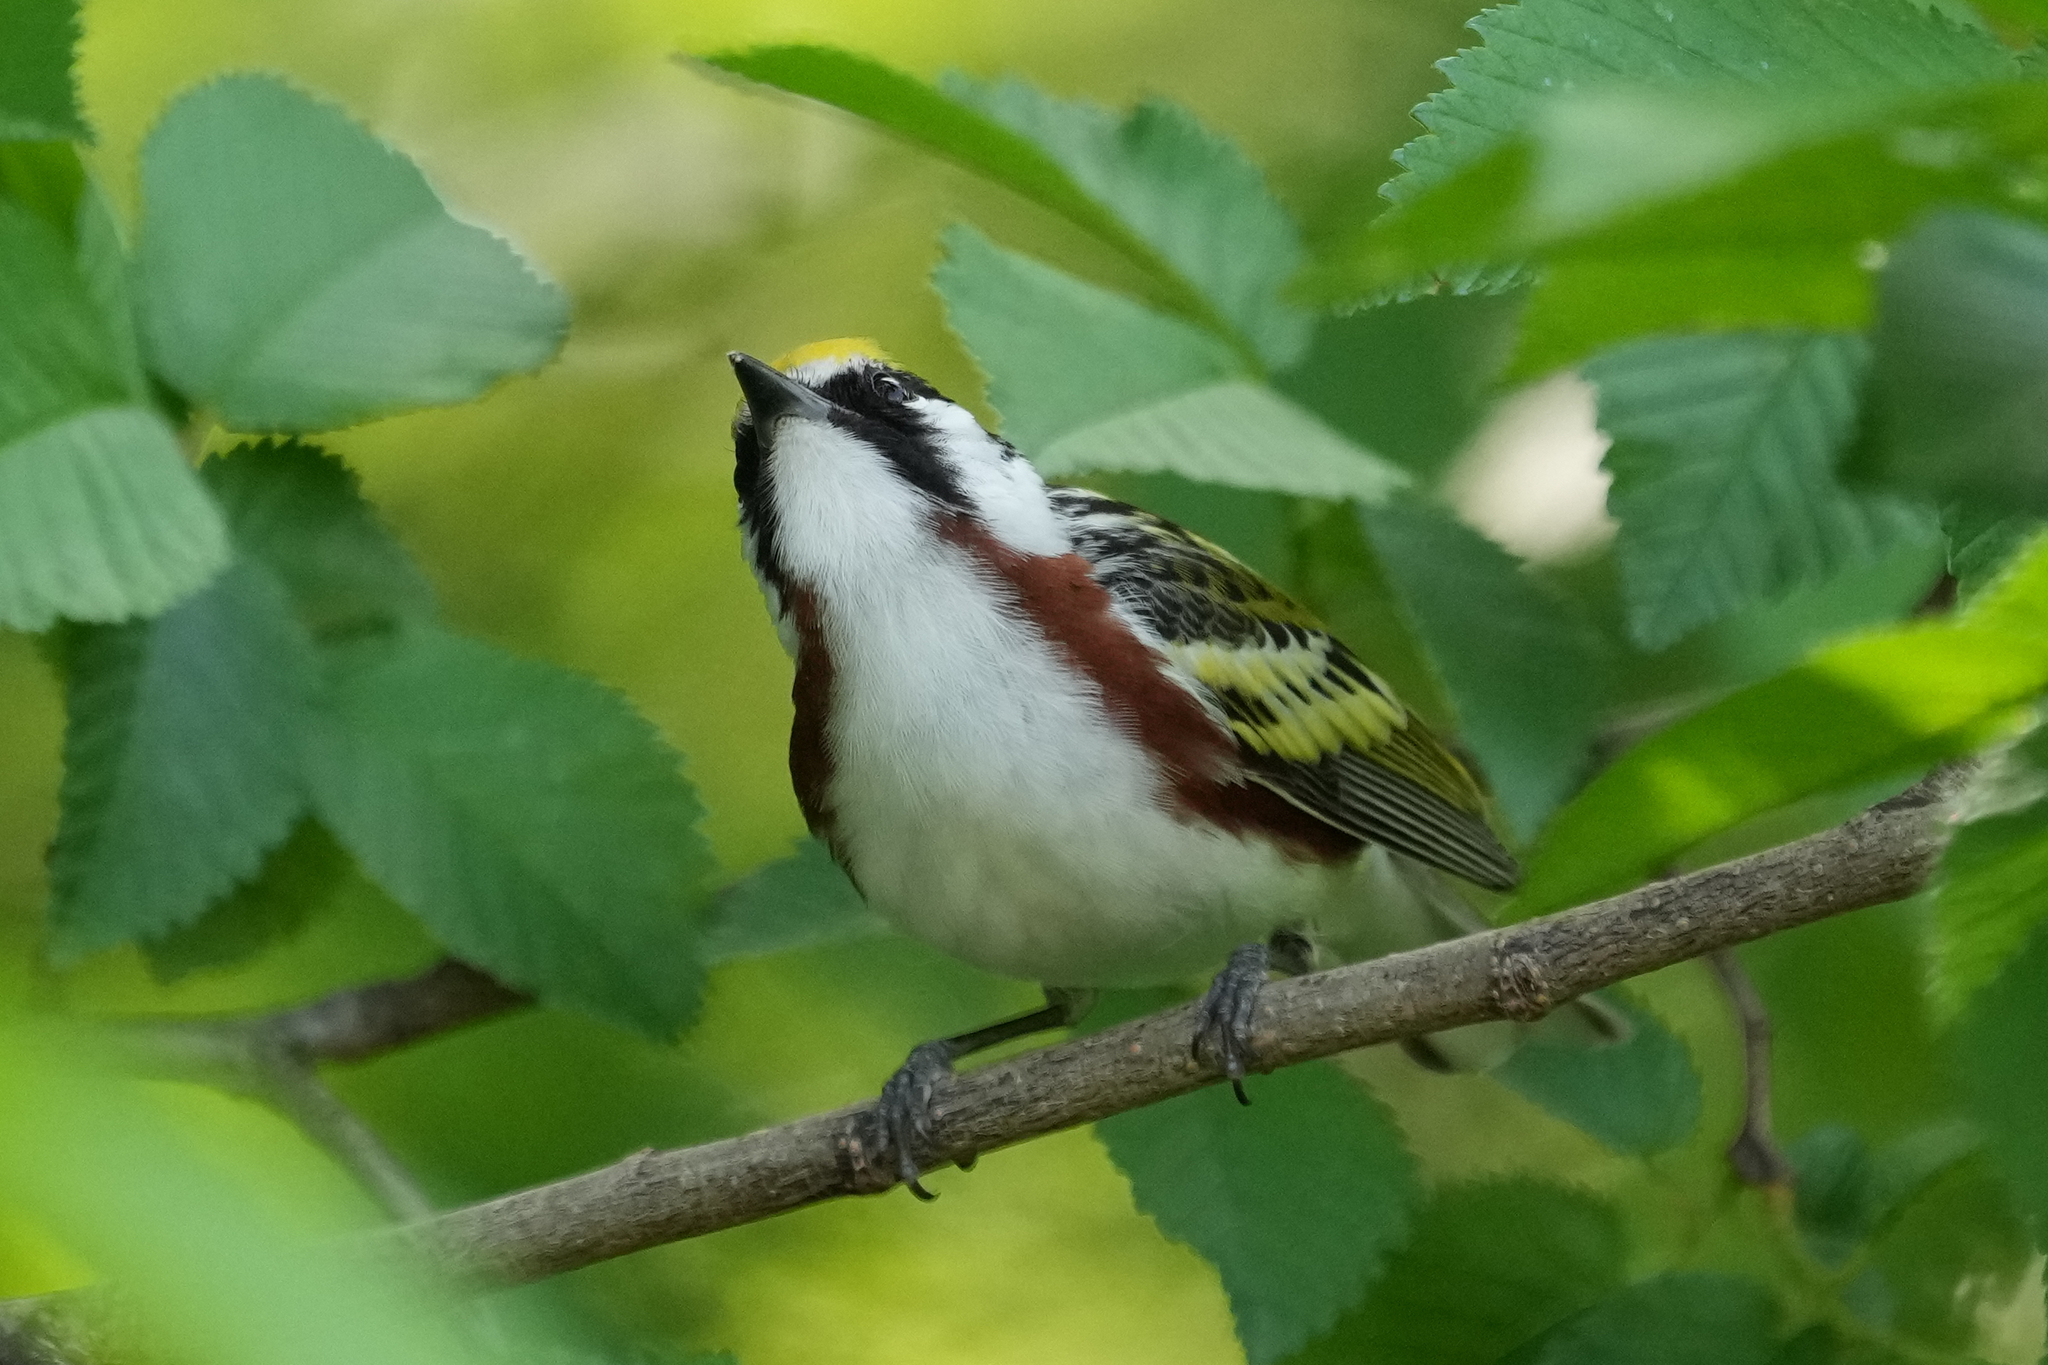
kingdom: Animalia
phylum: Chordata
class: Aves
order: Passeriformes
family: Parulidae
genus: Setophaga
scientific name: Setophaga pensylvanica
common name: Chestnut-sided warbler
